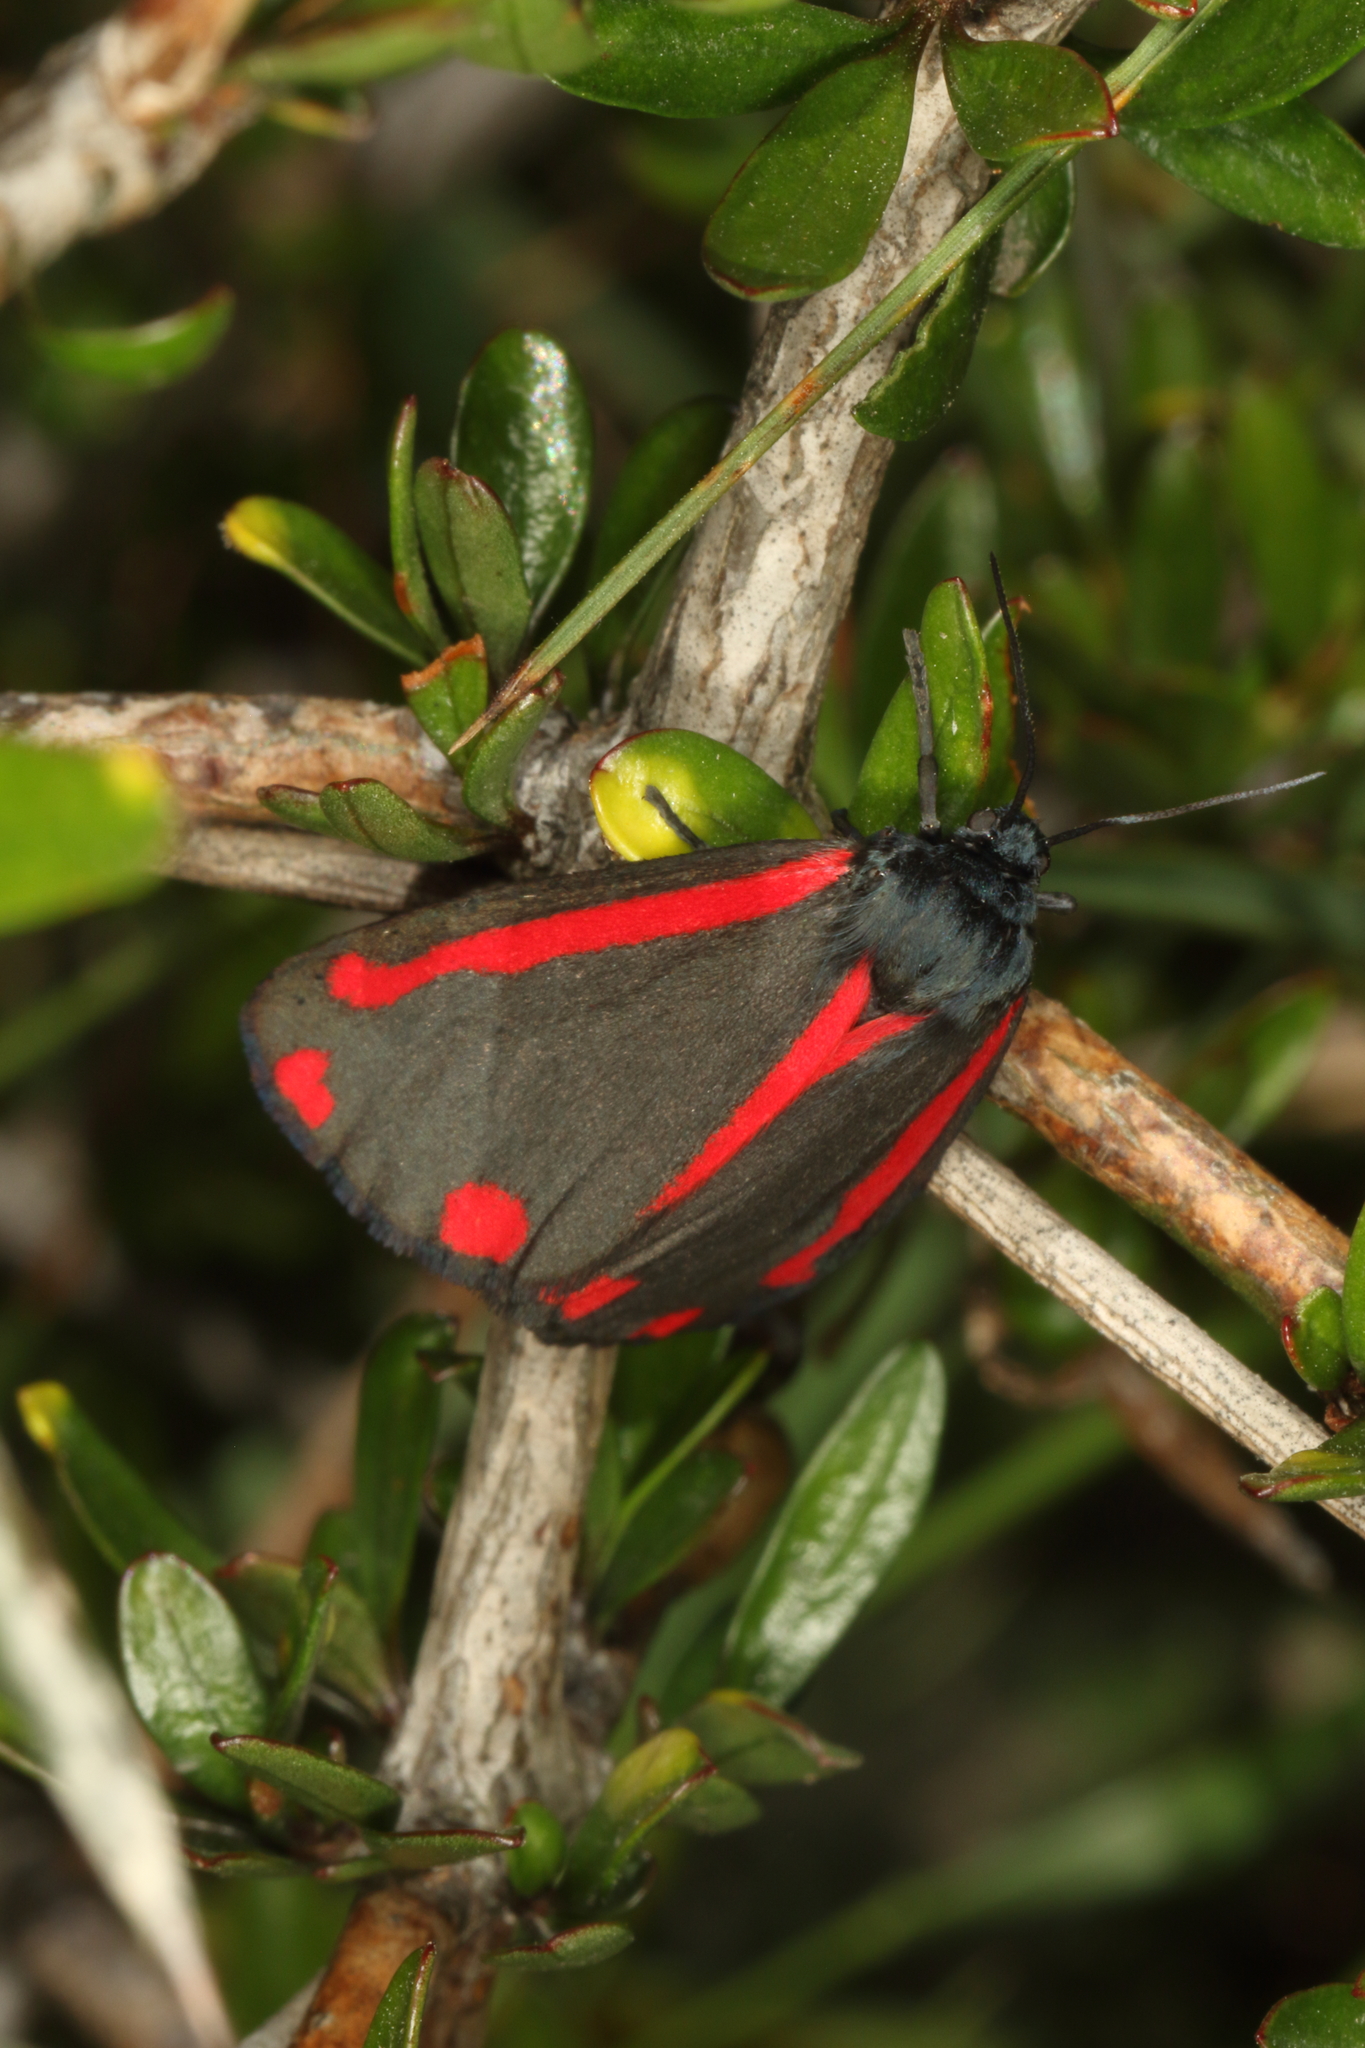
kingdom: Animalia
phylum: Arthropoda
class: Insecta
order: Lepidoptera
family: Erebidae
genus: Tyria
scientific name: Tyria jacobaeae
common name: Cinnabar
